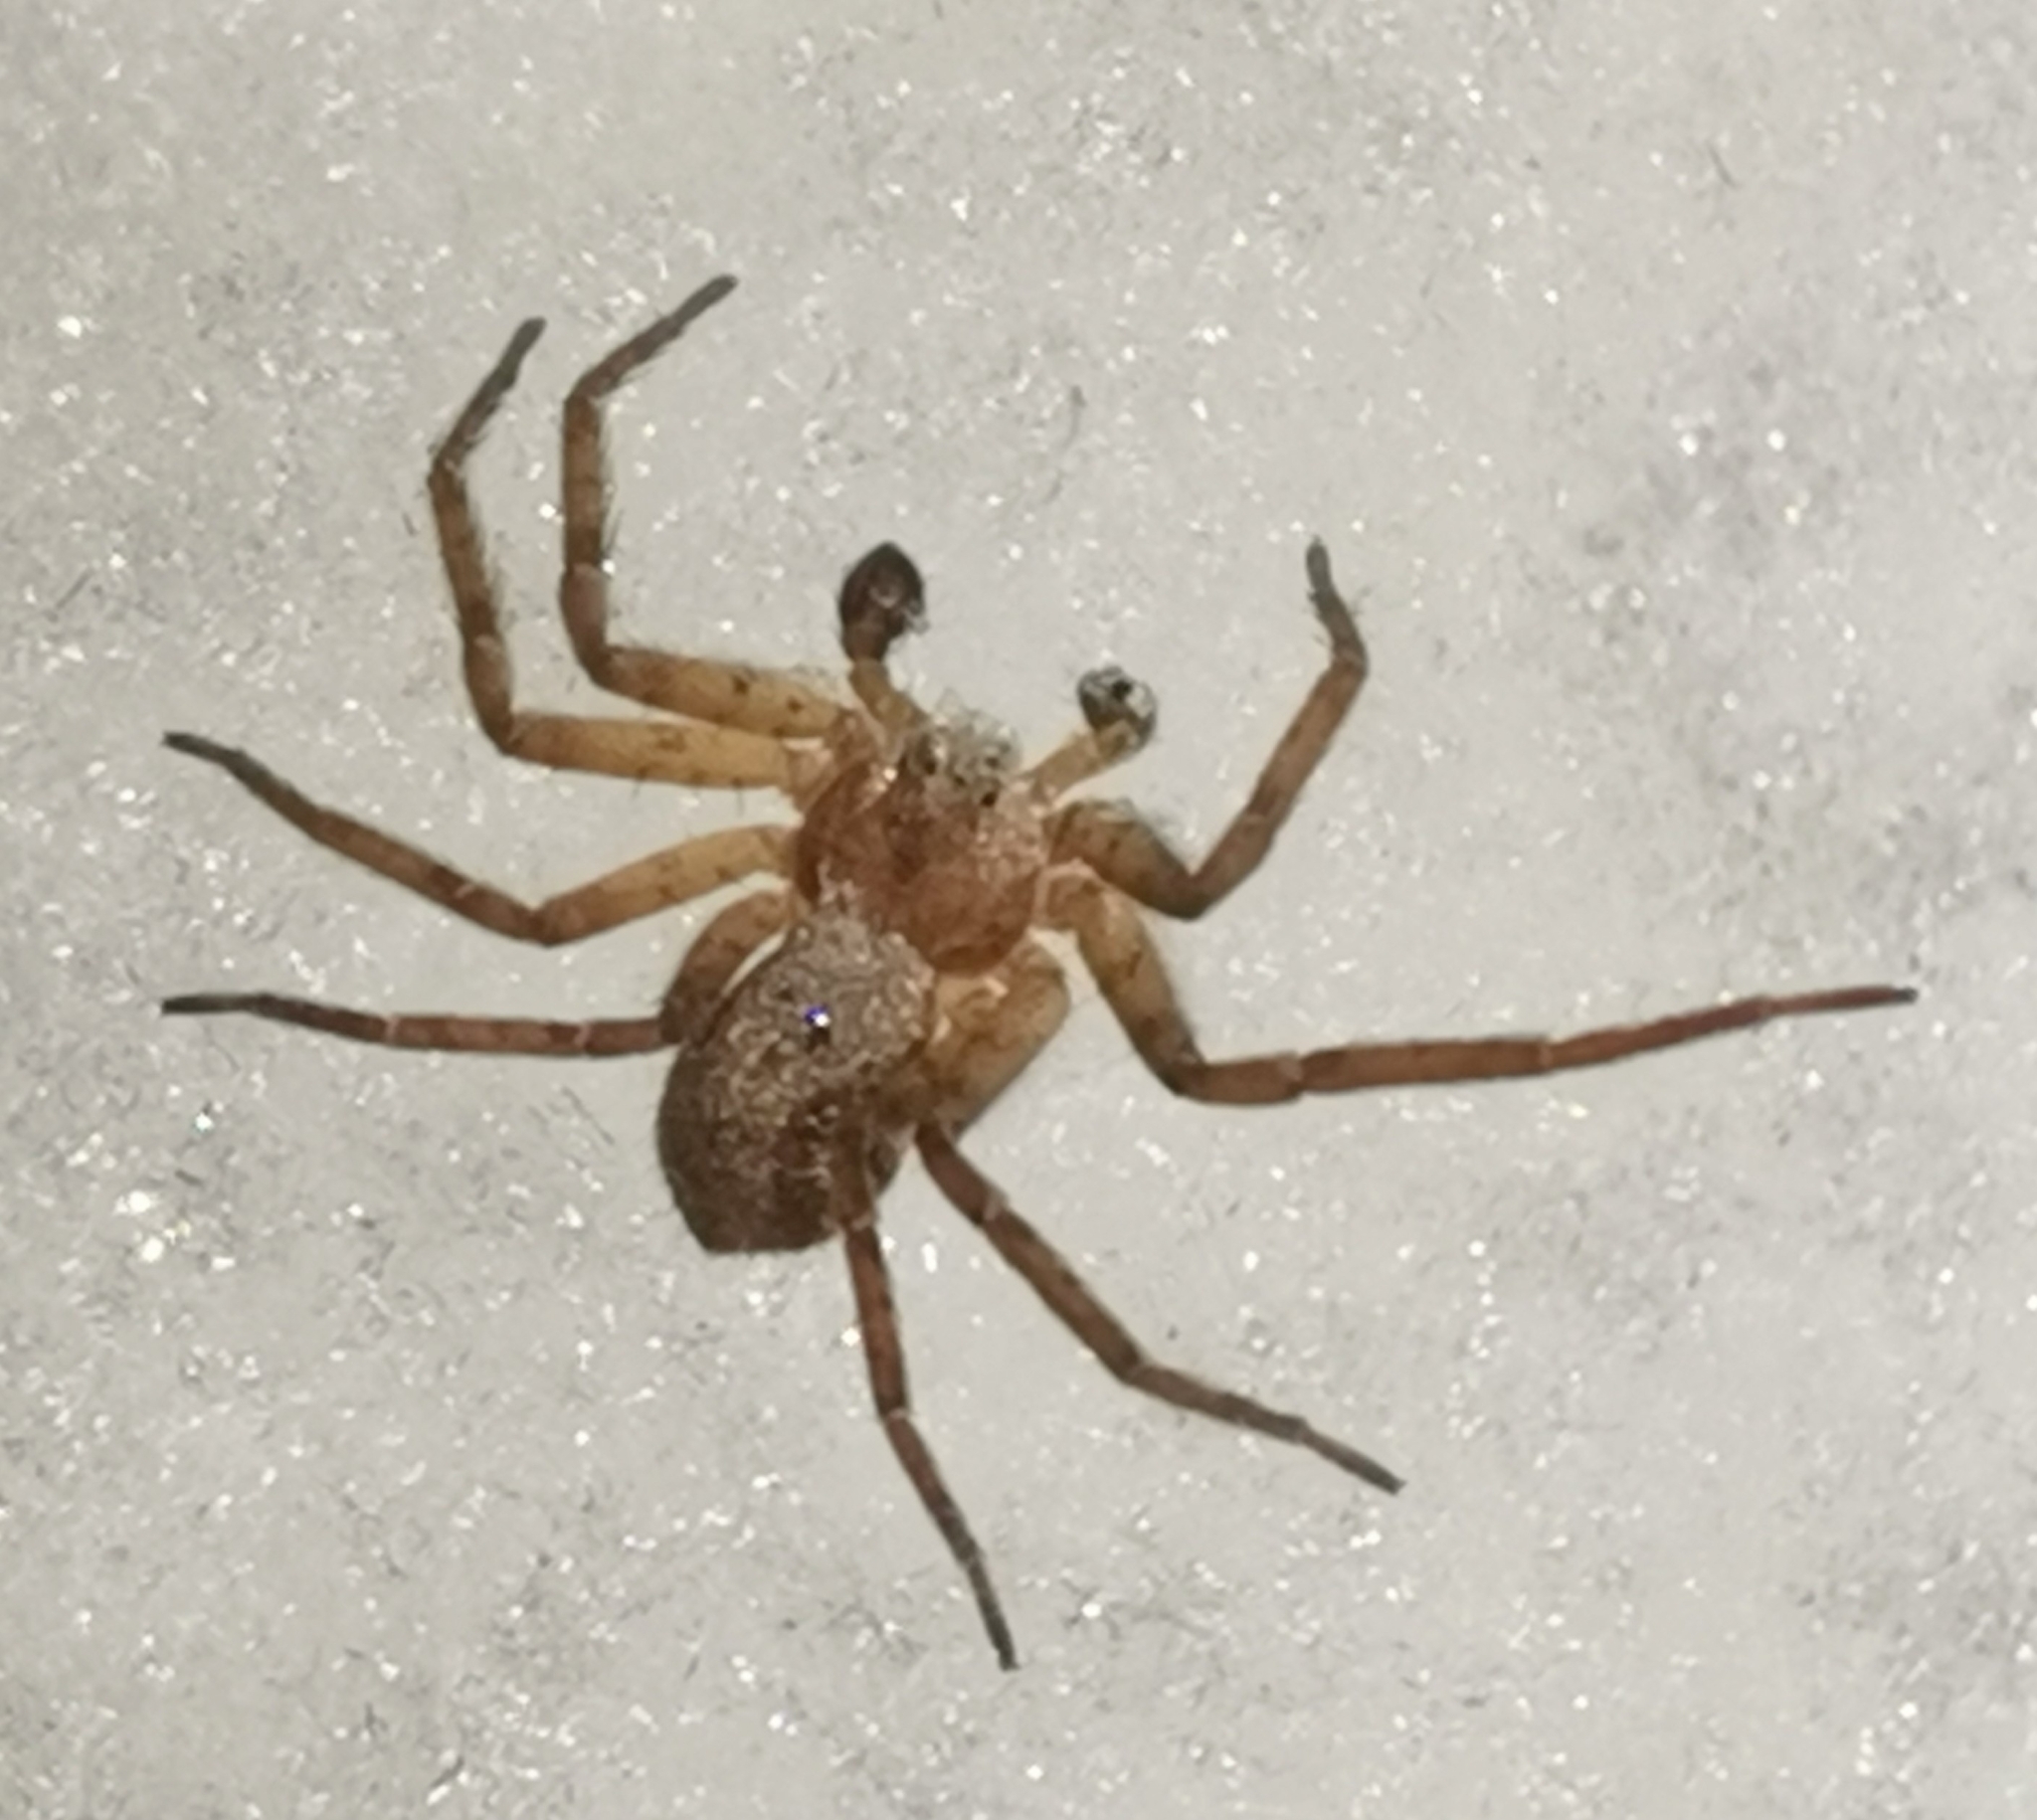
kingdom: Animalia
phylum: Arthropoda
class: Arachnida
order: Araneae
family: Philodromidae
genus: Philodromus
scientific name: Philodromus fuscomarginatus
